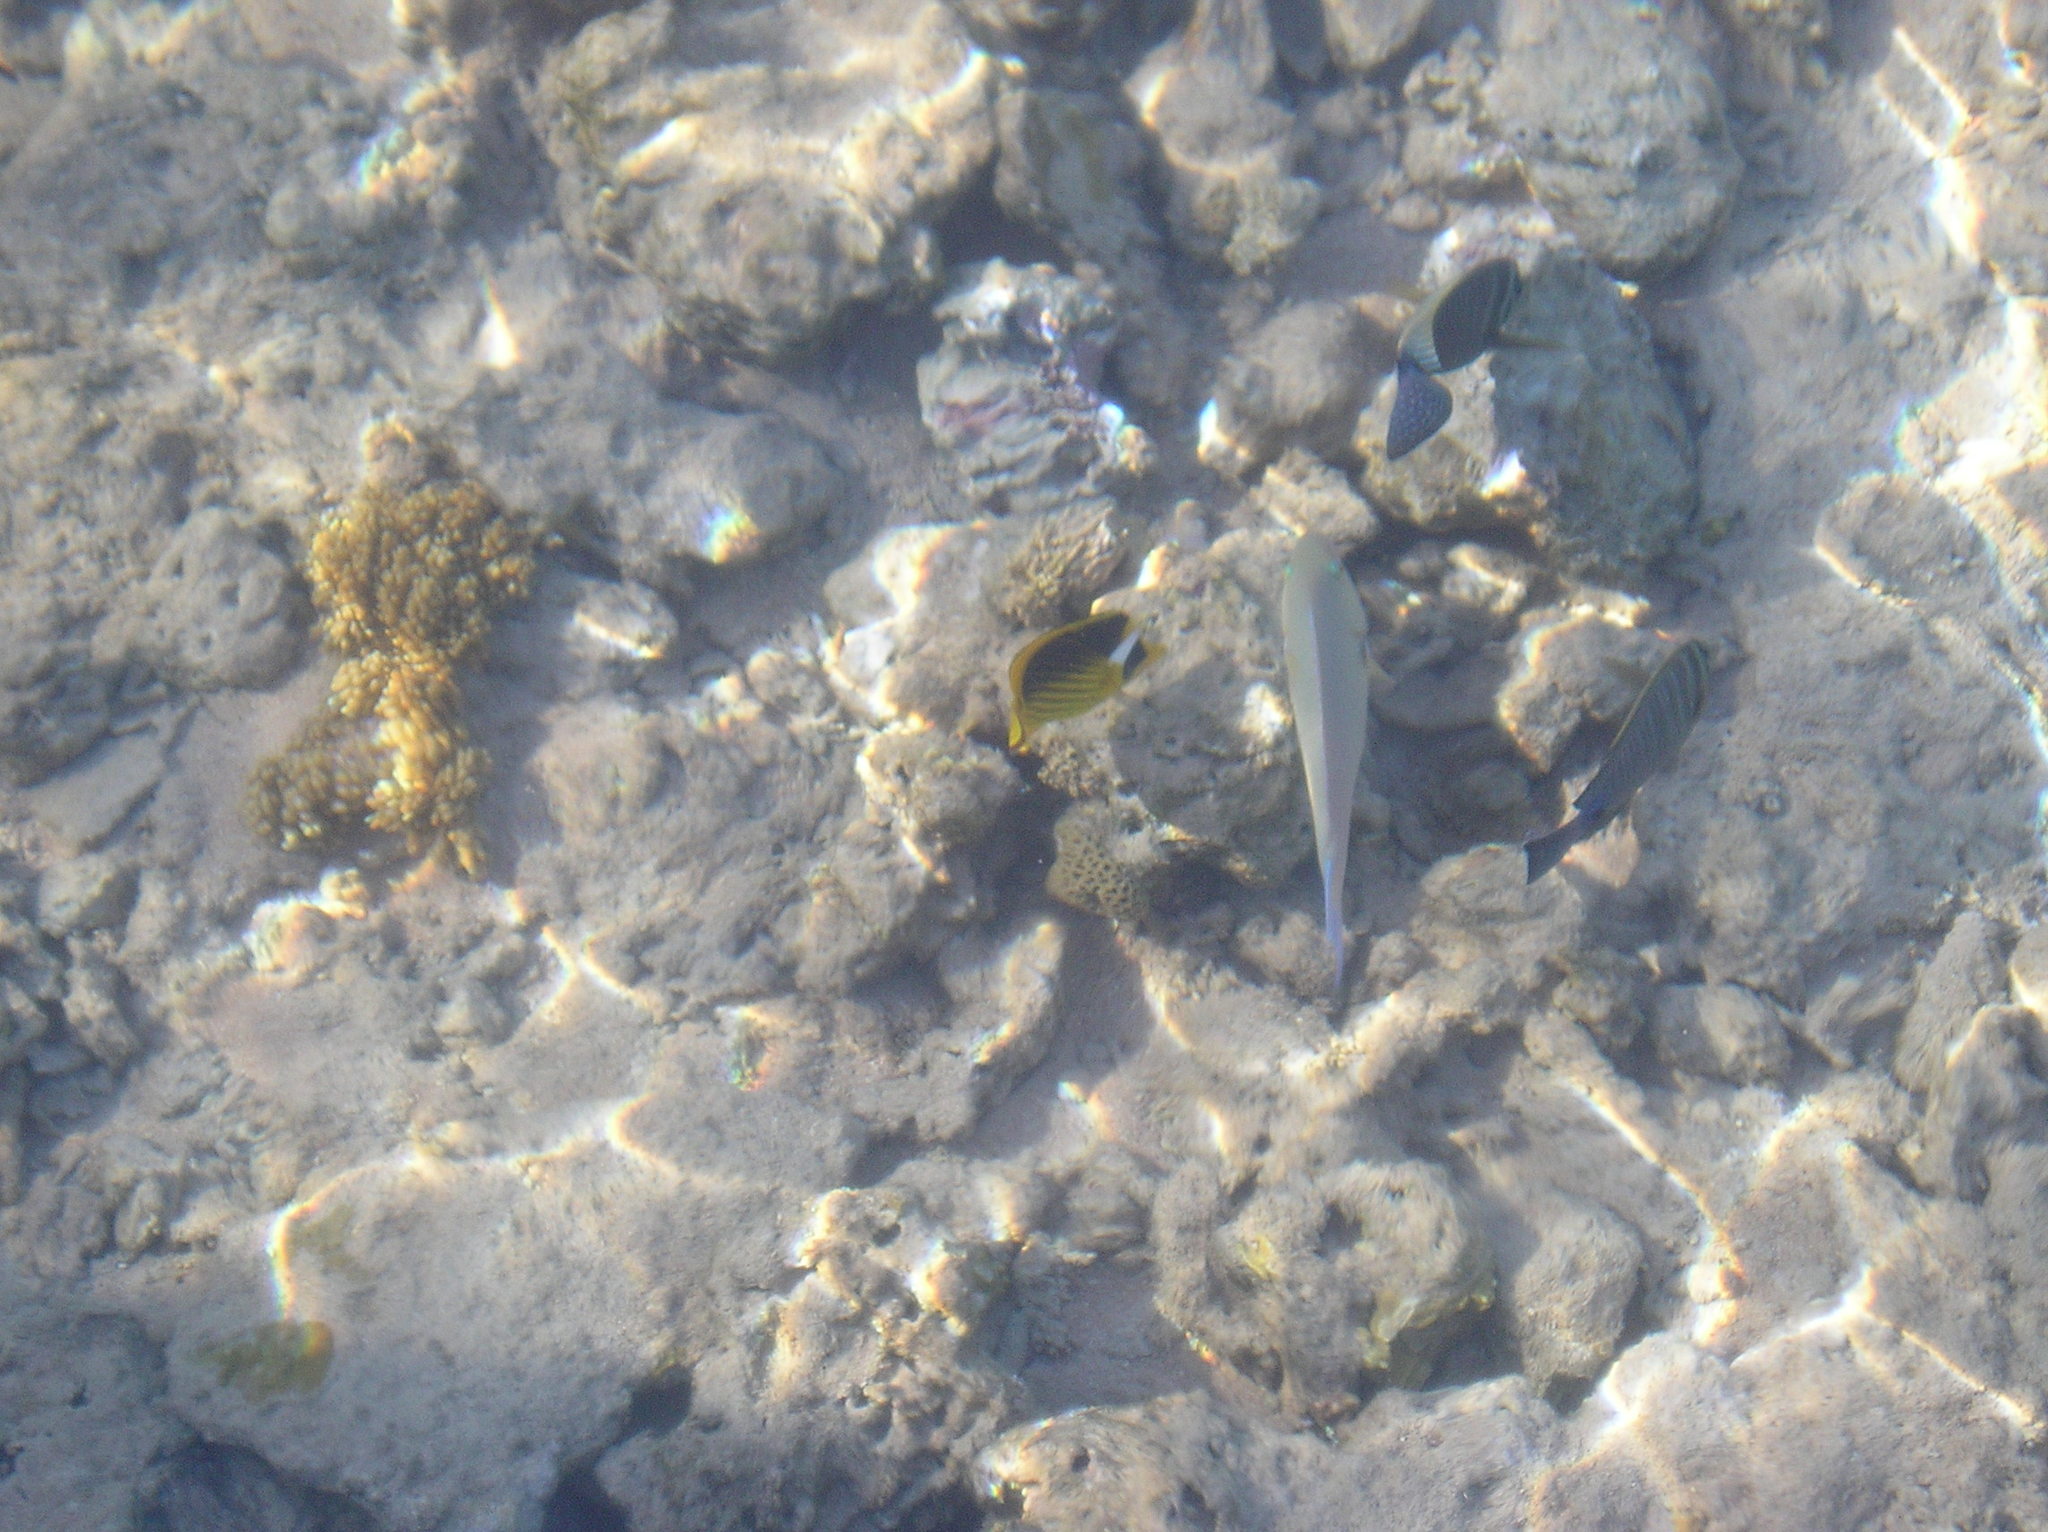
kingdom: Animalia
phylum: Chordata
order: Perciformes
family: Chaetodontidae
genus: Chaetodon
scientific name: Chaetodon fasciatus
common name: Diagonal butterflyfish
